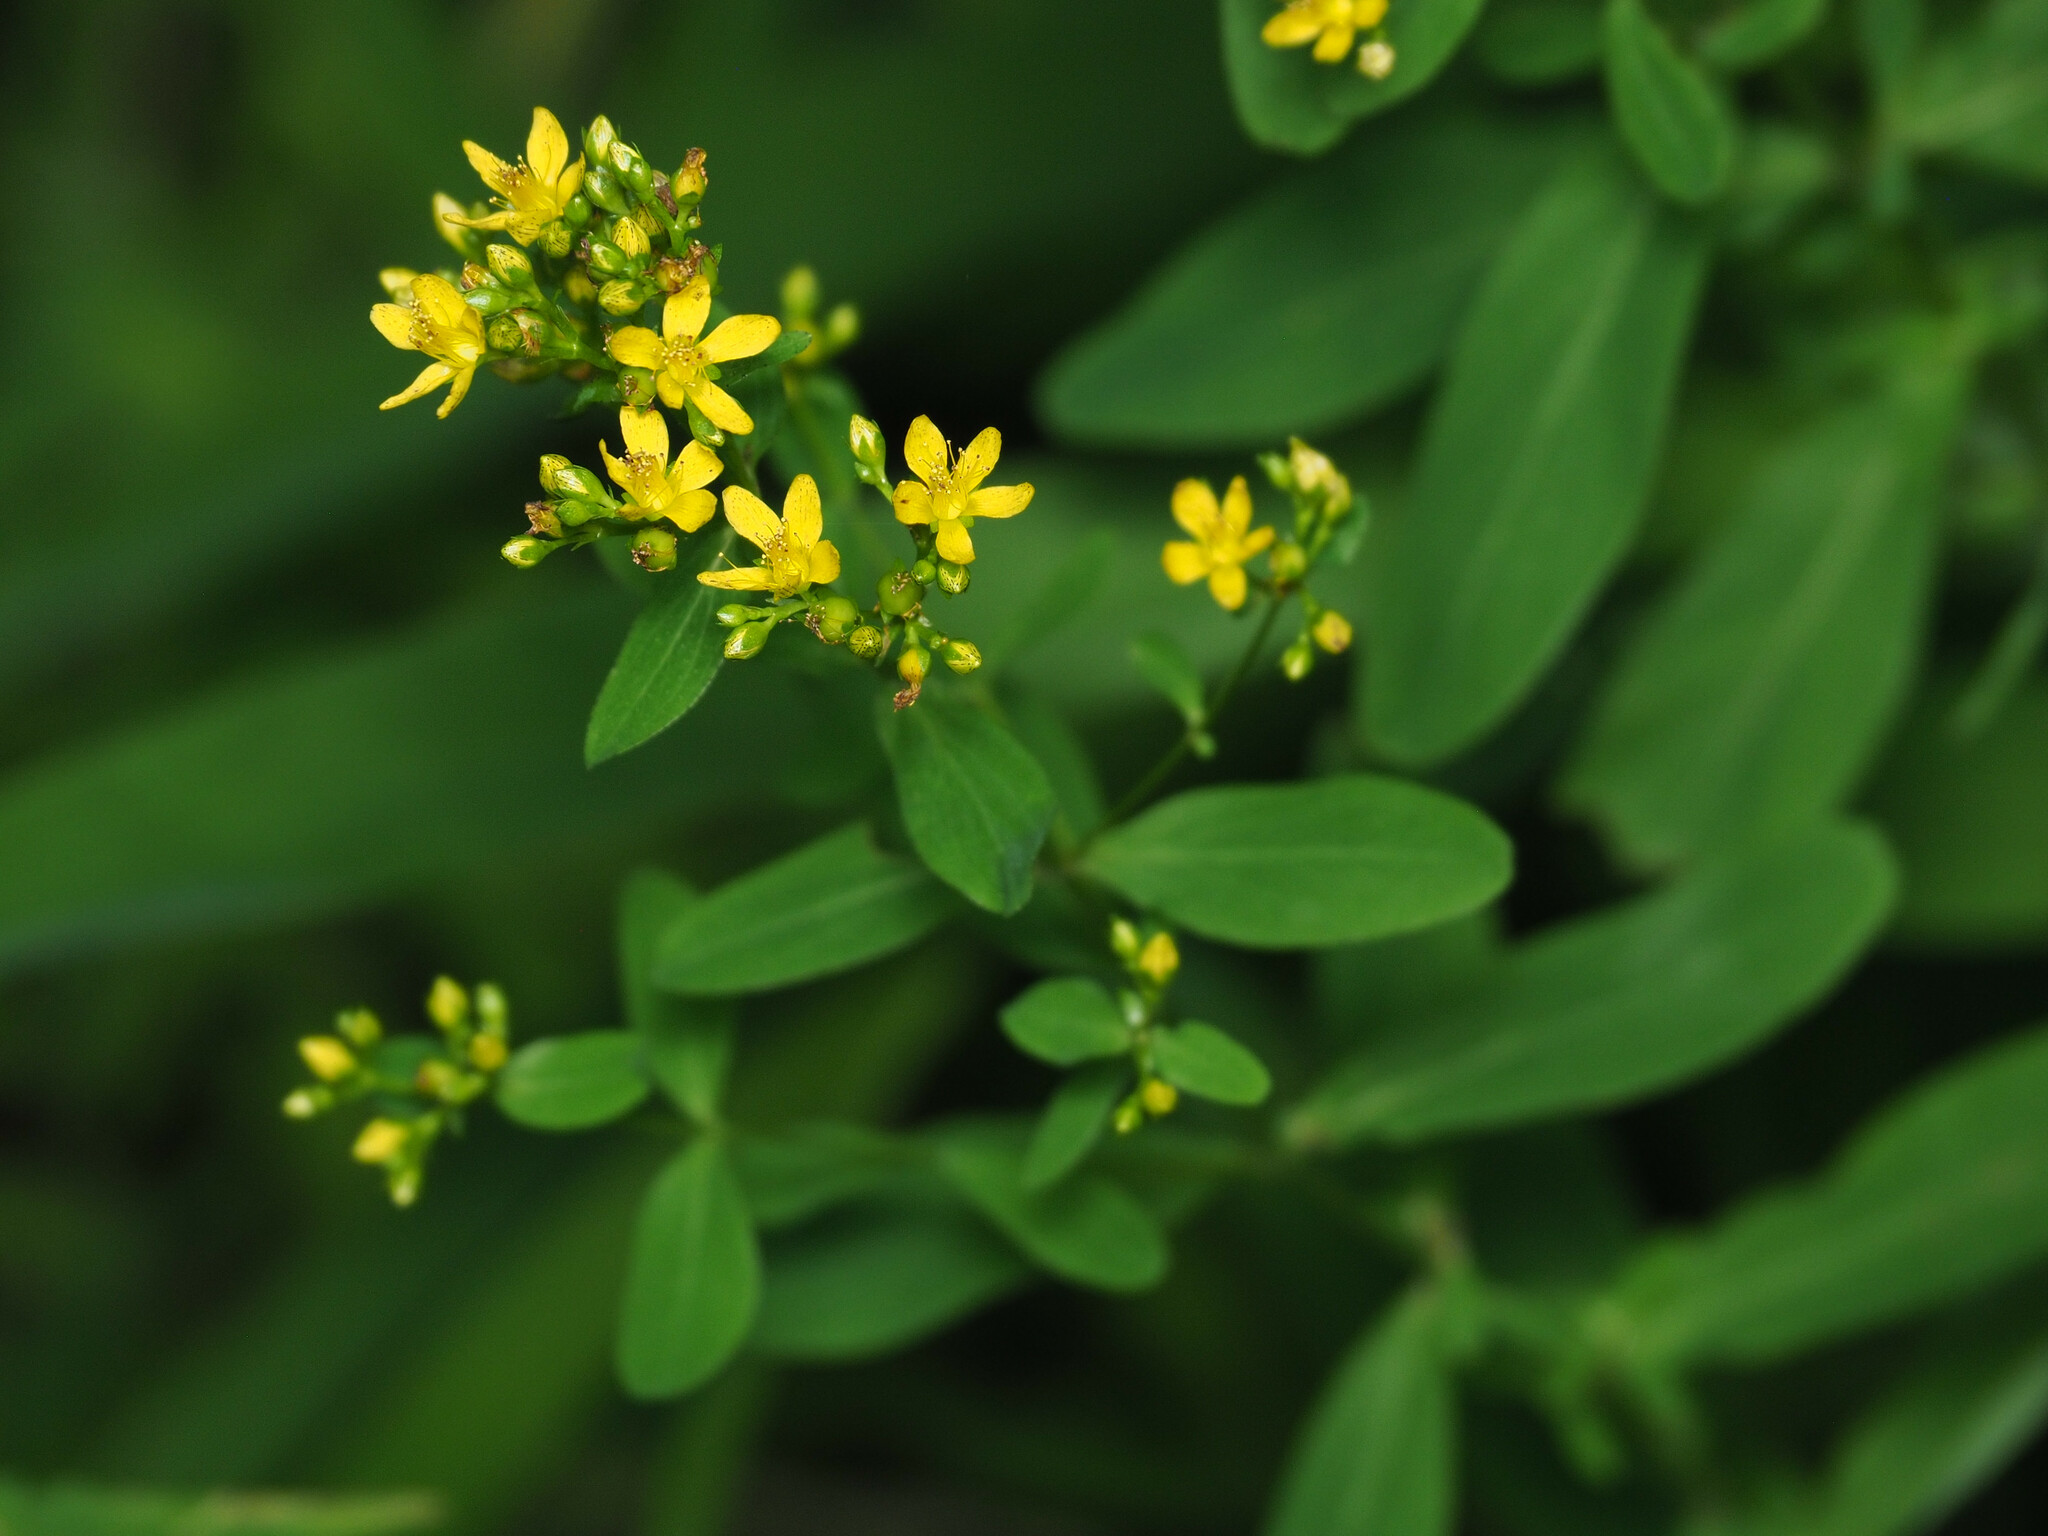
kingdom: Plantae
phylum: Tracheophyta
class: Magnoliopsida
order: Malpighiales
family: Hypericaceae
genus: Hypericum
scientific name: Hypericum punctatum
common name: Spotted st. john's-wort
